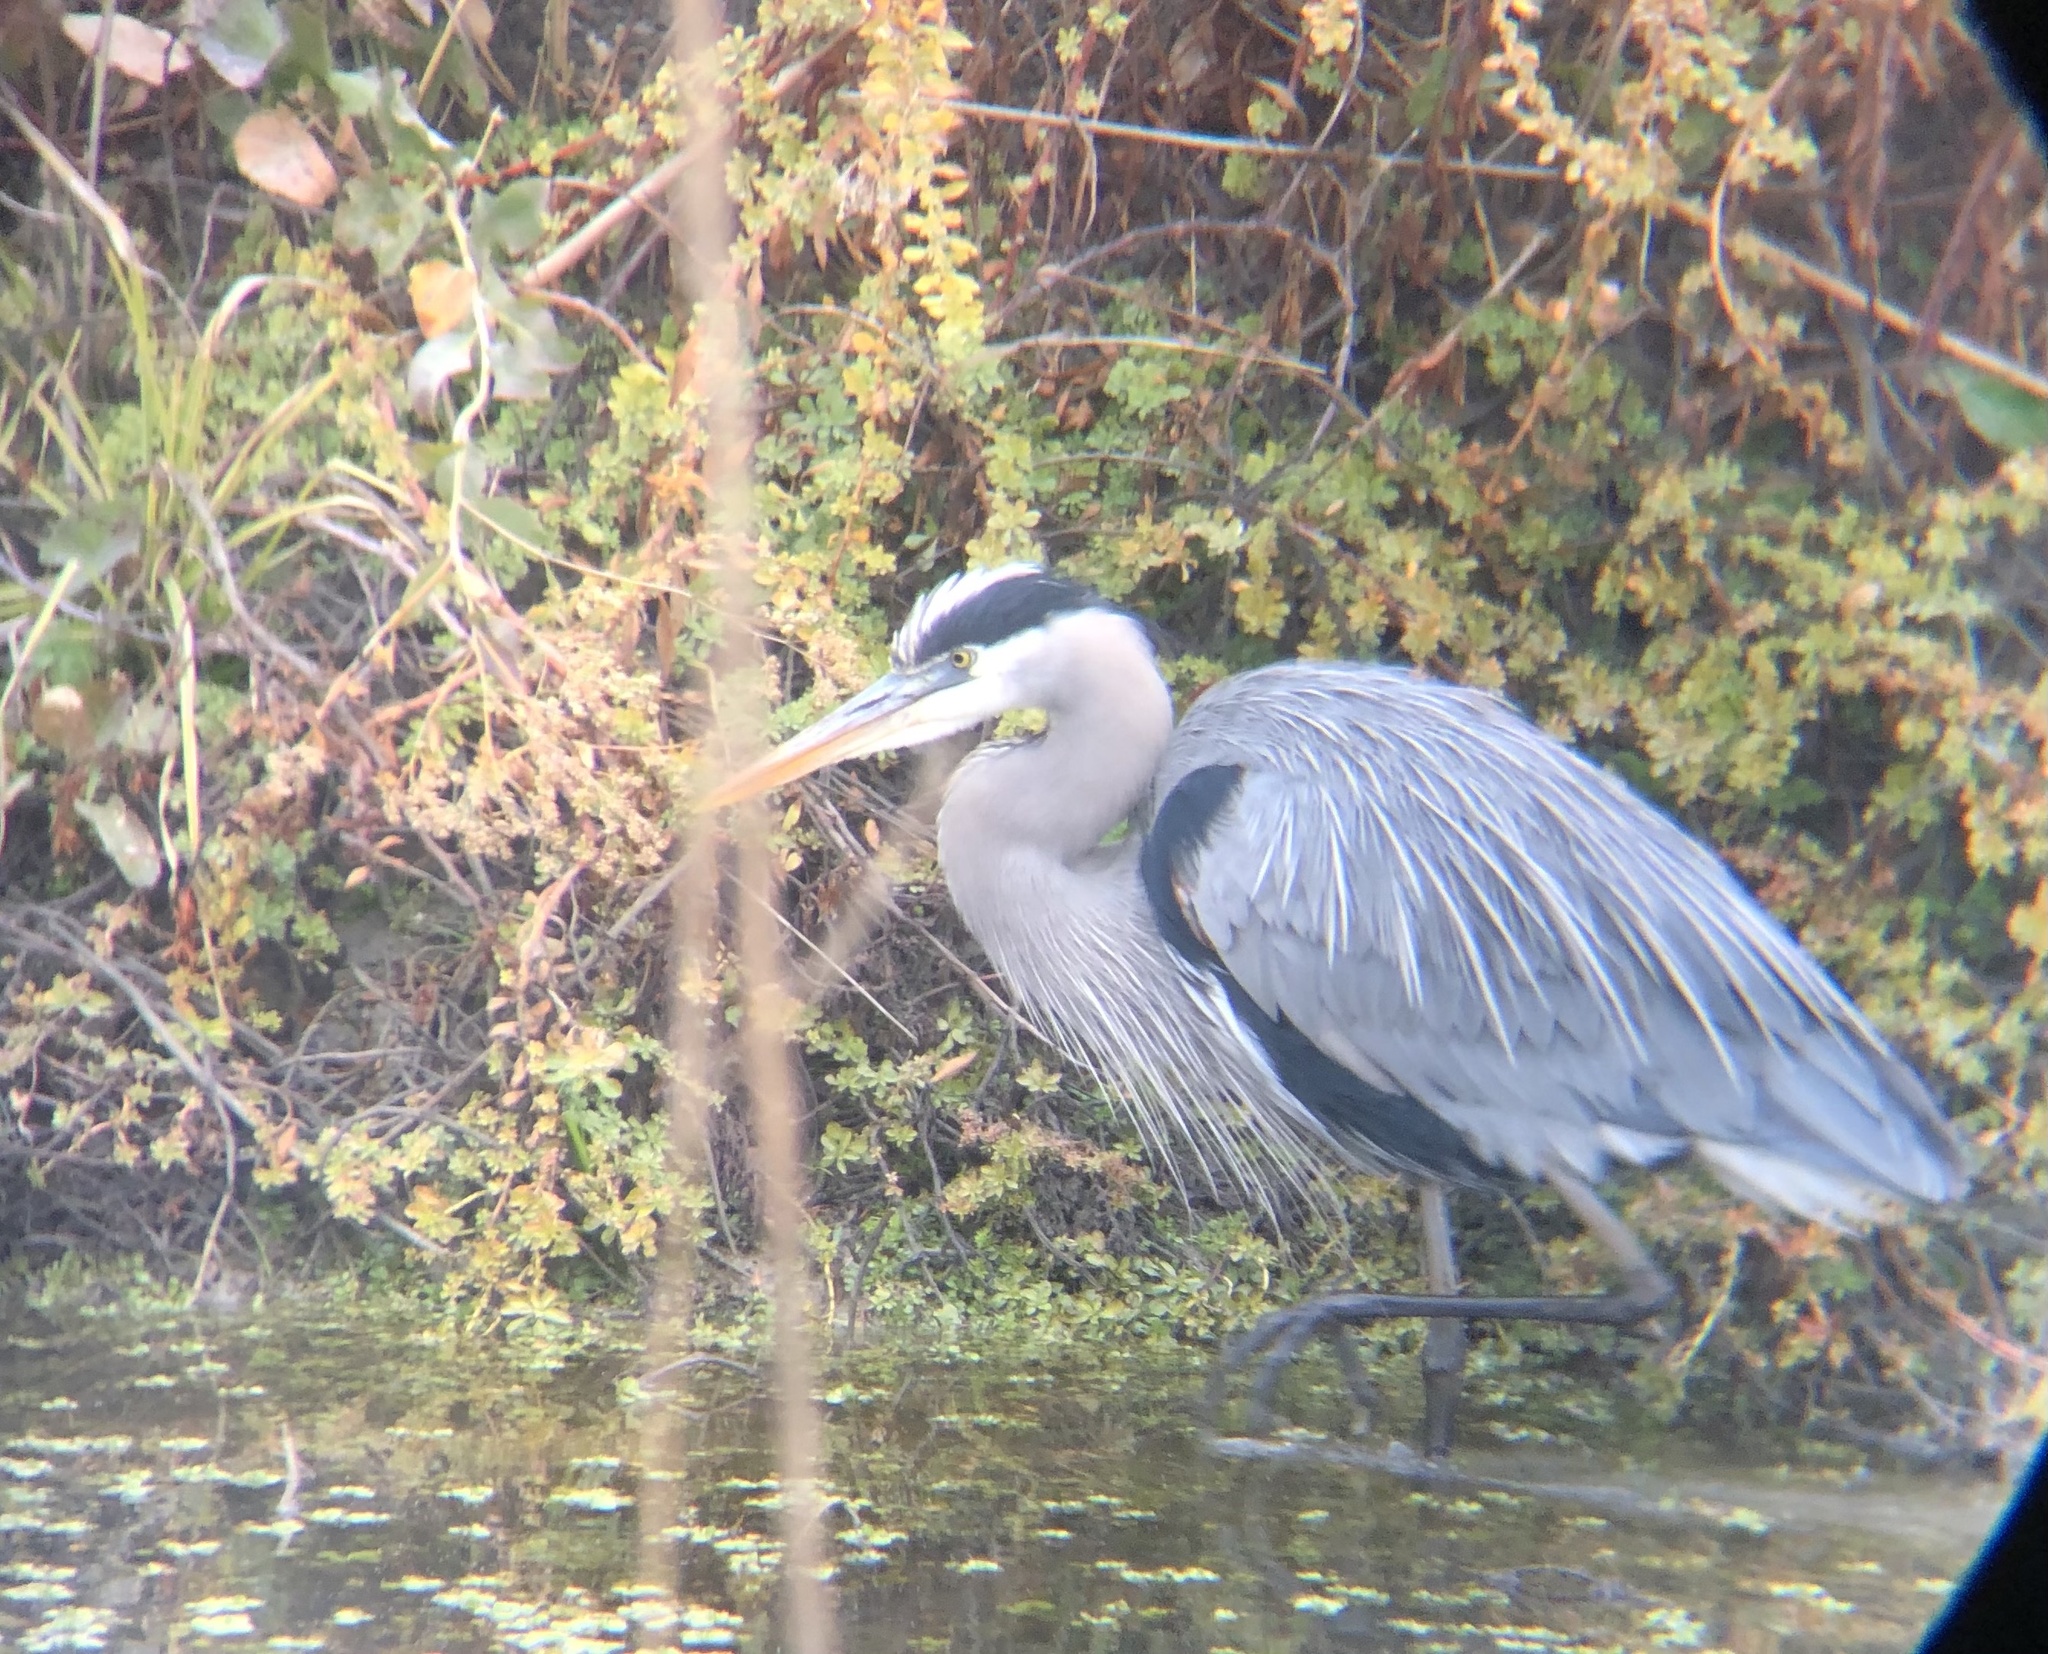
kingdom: Animalia
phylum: Chordata
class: Aves
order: Pelecaniformes
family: Ardeidae
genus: Ardea
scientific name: Ardea herodias
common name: Great blue heron
